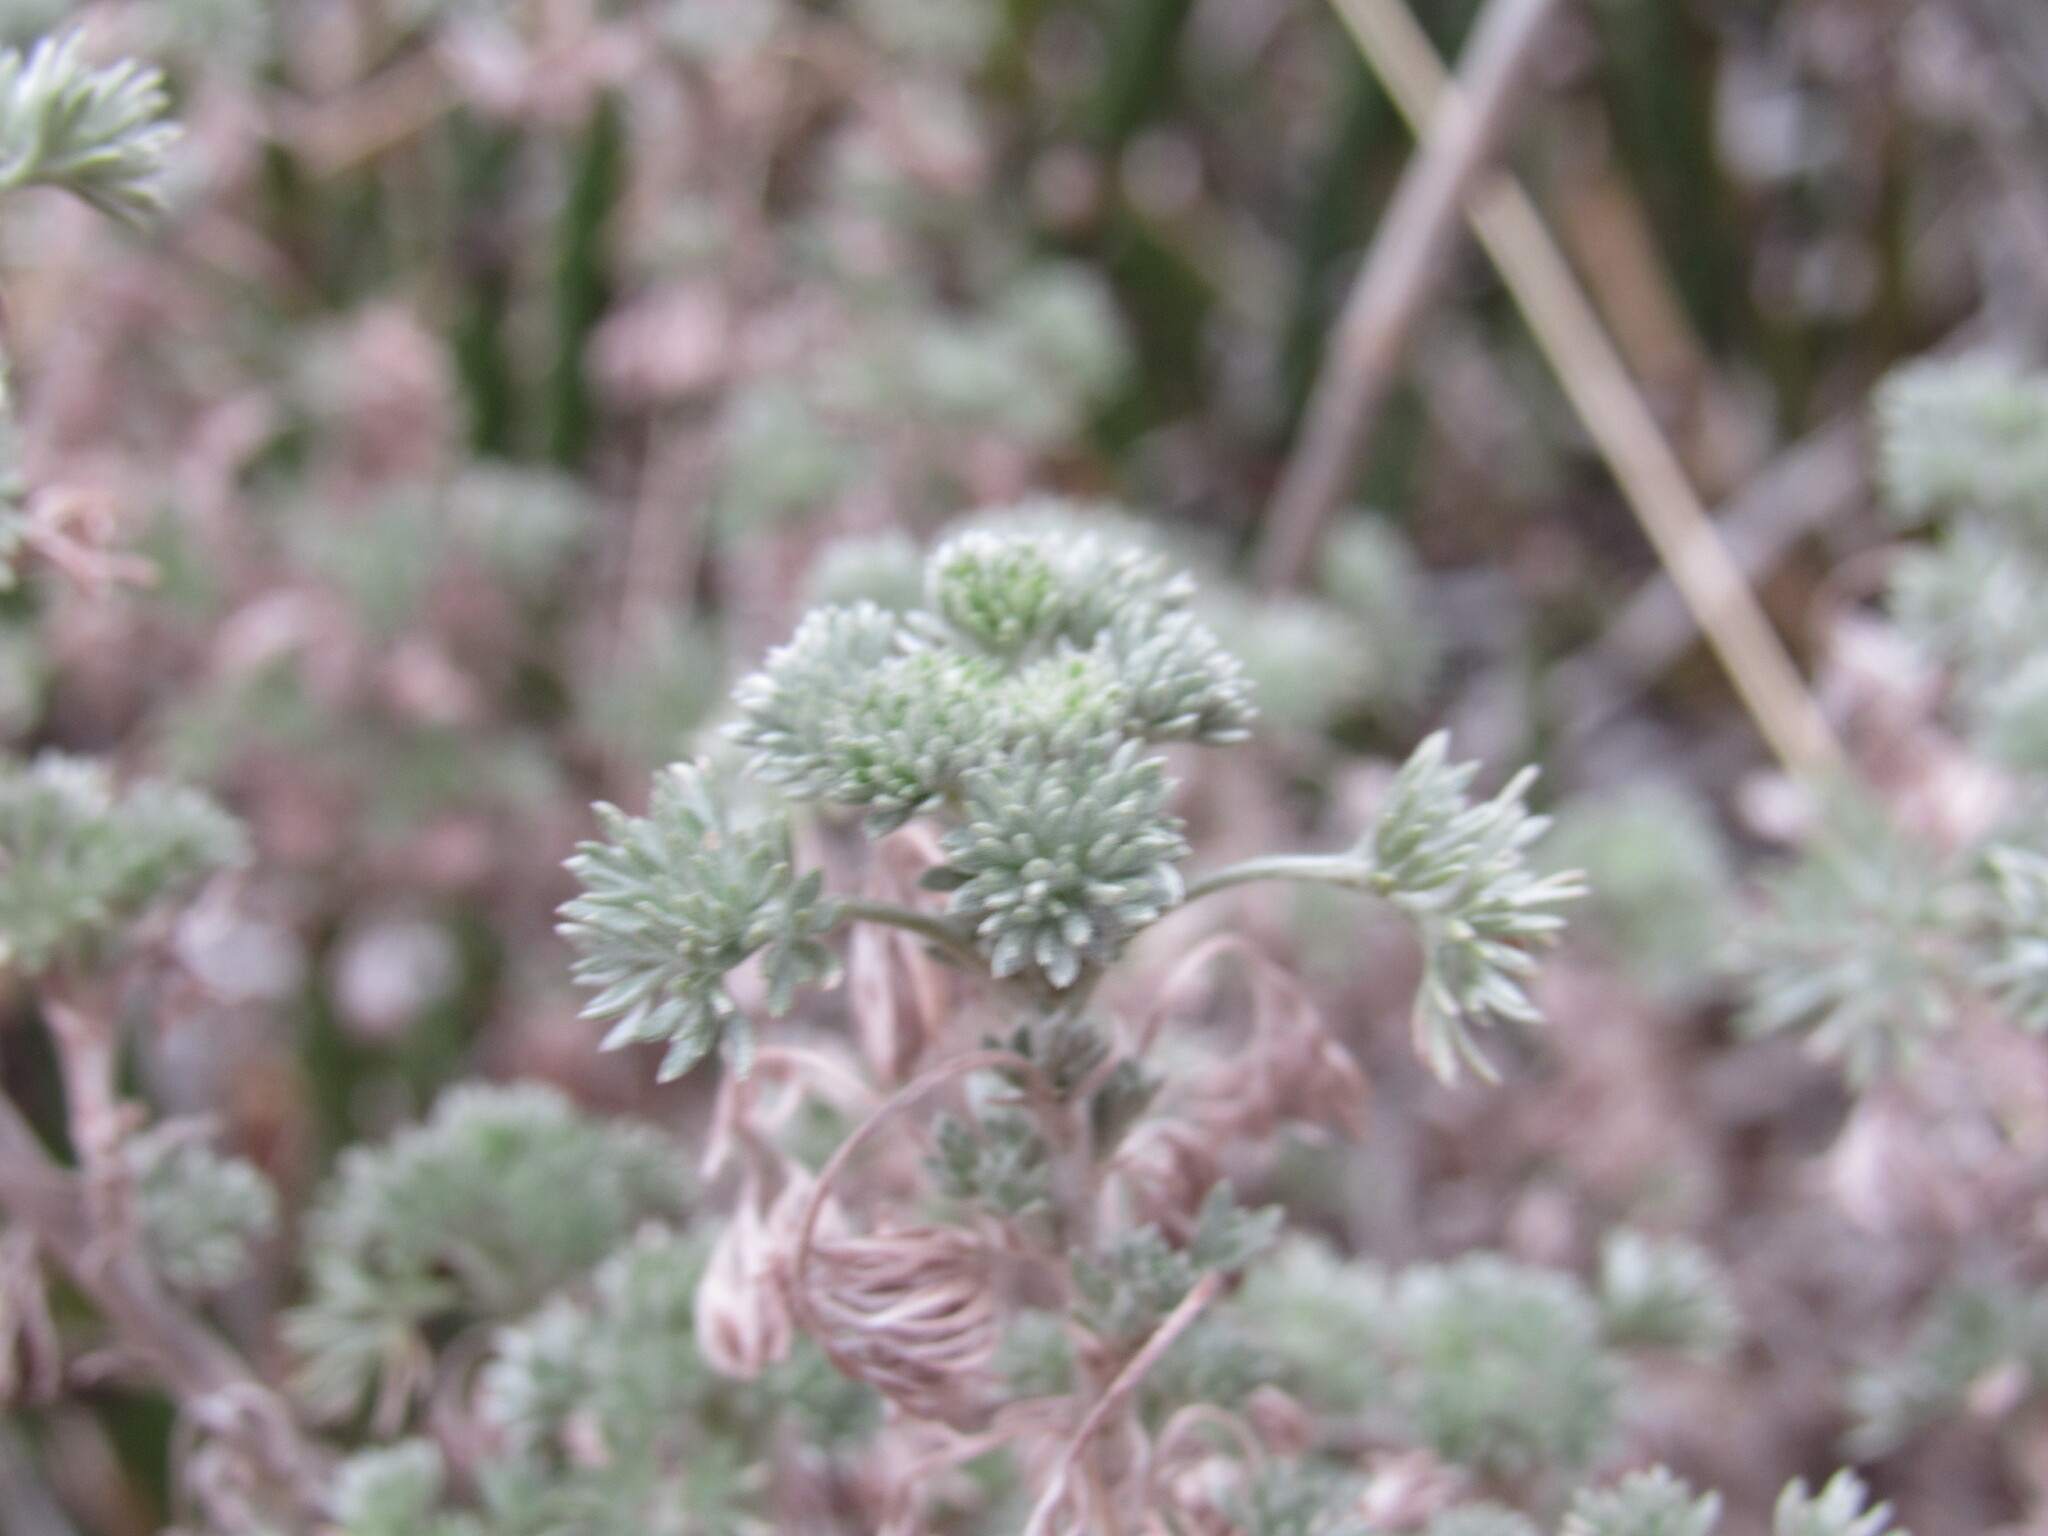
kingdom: Plantae
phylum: Tracheophyta
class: Magnoliopsida
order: Asterales
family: Asteraceae
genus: Artemisia
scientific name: Artemisia frigida
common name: Prairie sagewort
